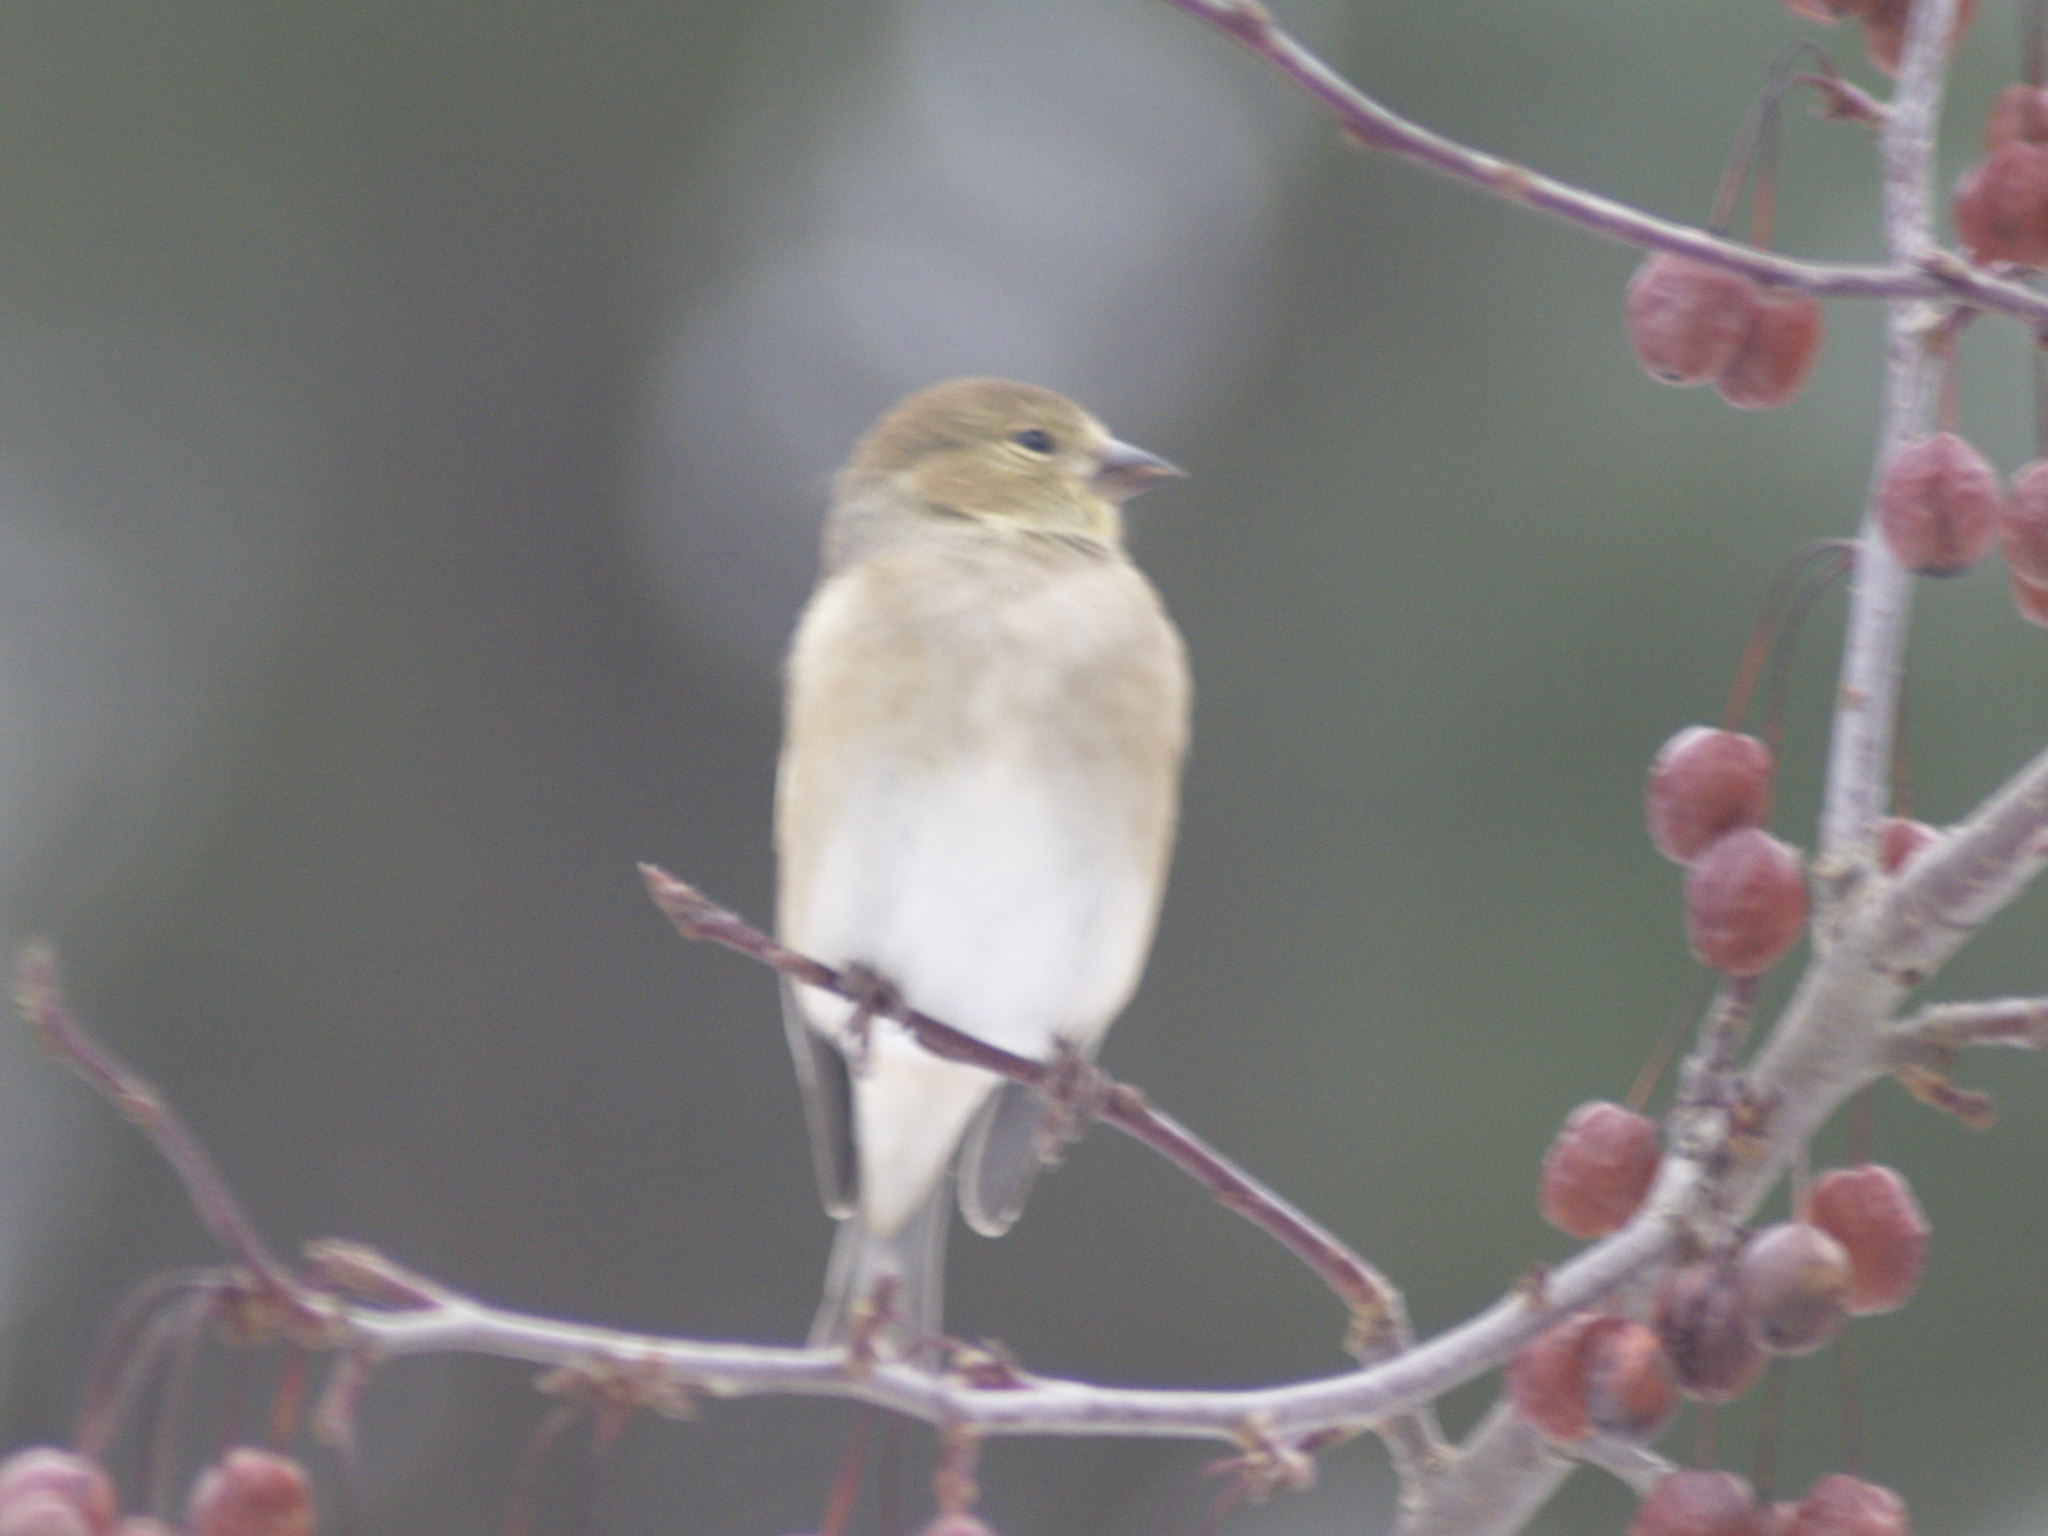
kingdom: Animalia
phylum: Chordata
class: Aves
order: Passeriformes
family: Fringillidae
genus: Spinus
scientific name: Spinus tristis
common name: American goldfinch
